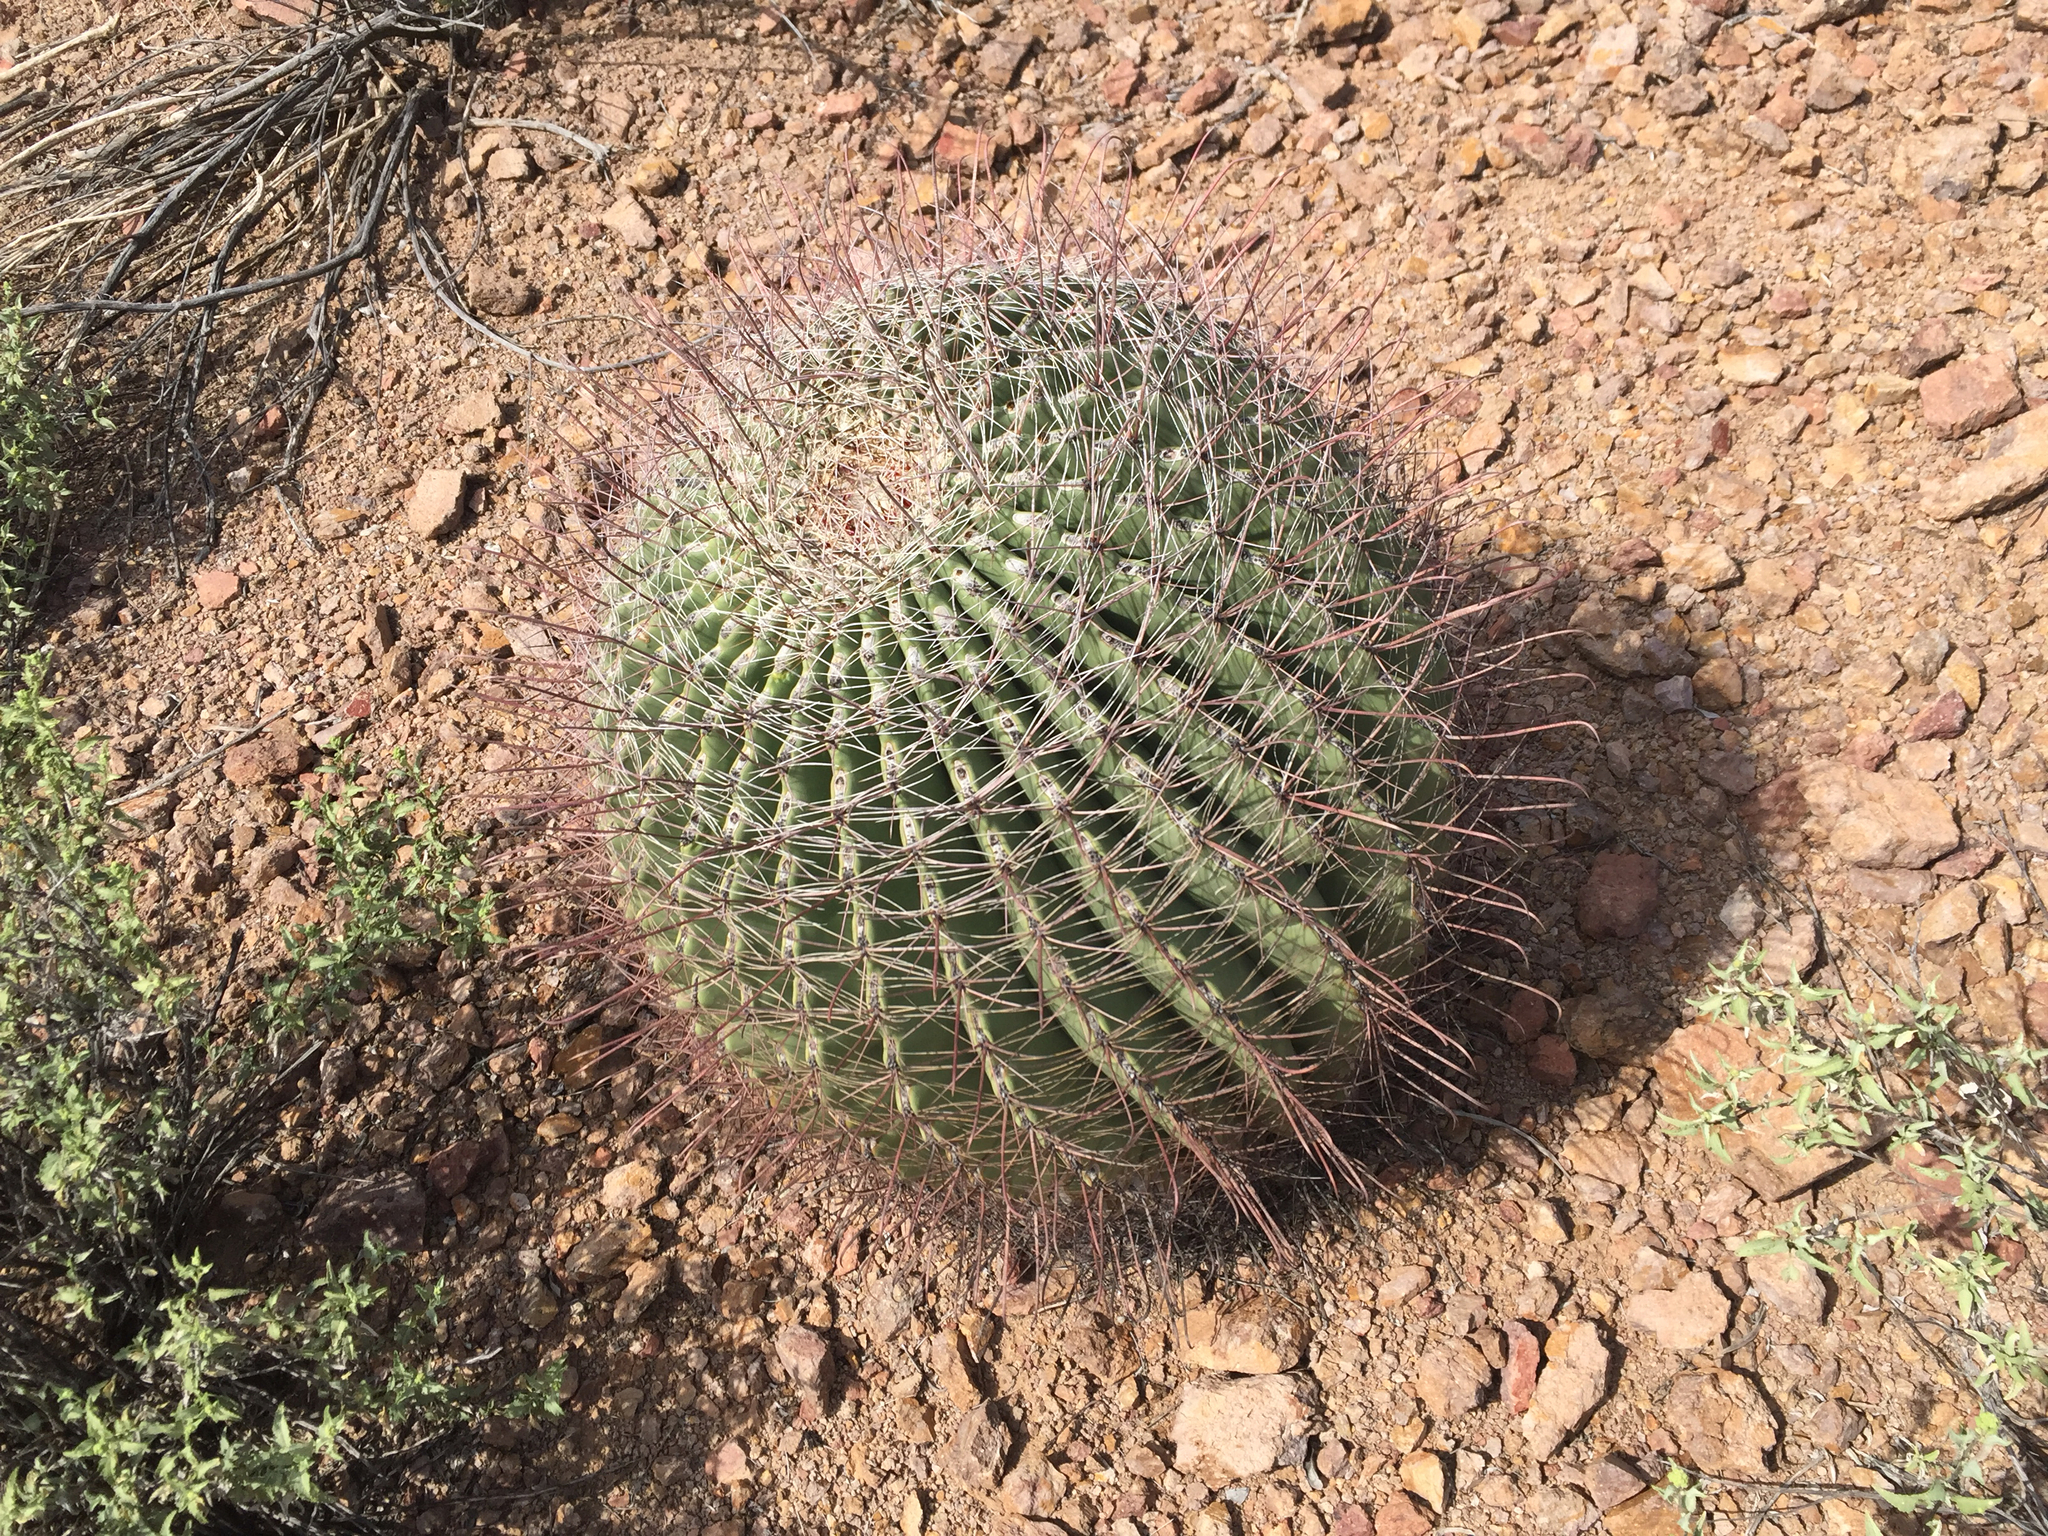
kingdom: Plantae
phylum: Tracheophyta
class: Magnoliopsida
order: Caryophyllales
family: Cactaceae
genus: Ferocactus
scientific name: Ferocactus wislizeni
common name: Candy barrel cactus
